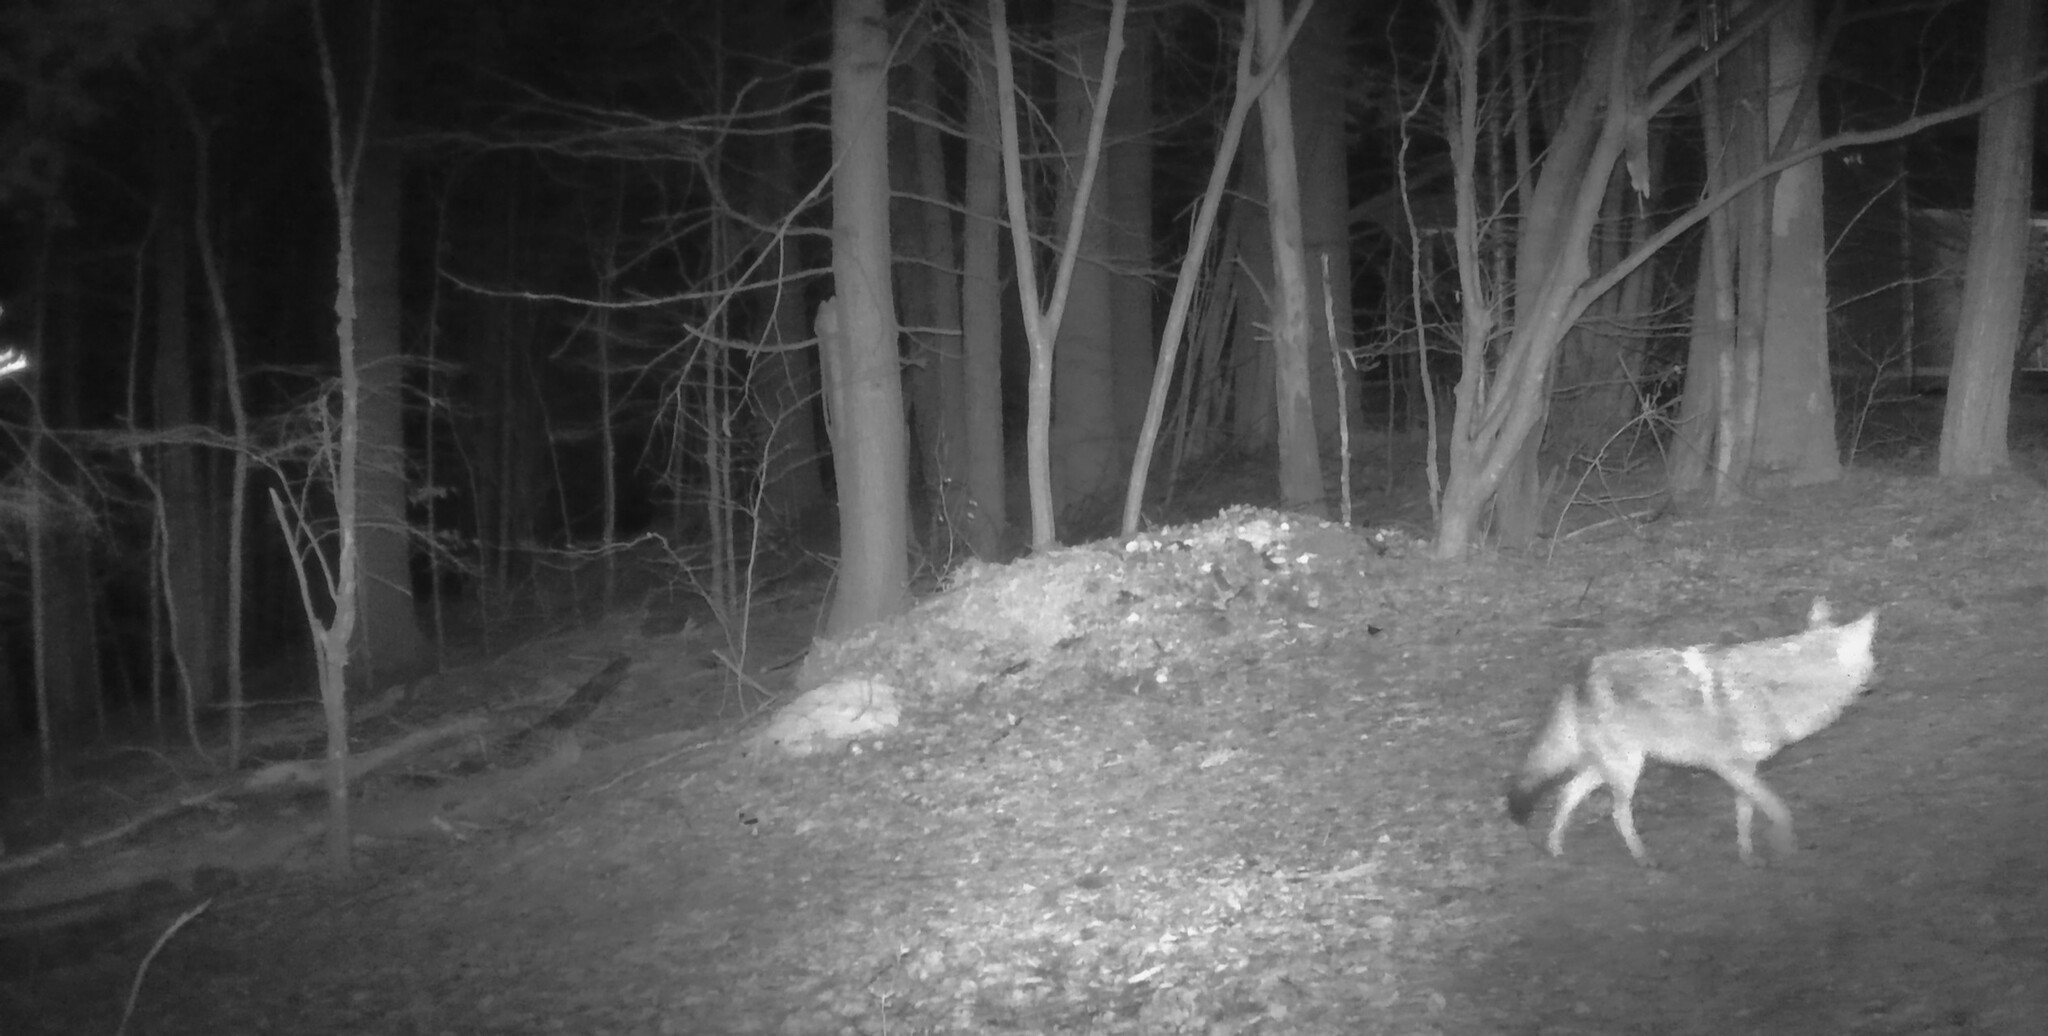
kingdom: Animalia
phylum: Chordata
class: Mammalia
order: Carnivora
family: Canidae
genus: Canis
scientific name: Canis latrans
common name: Coyote
